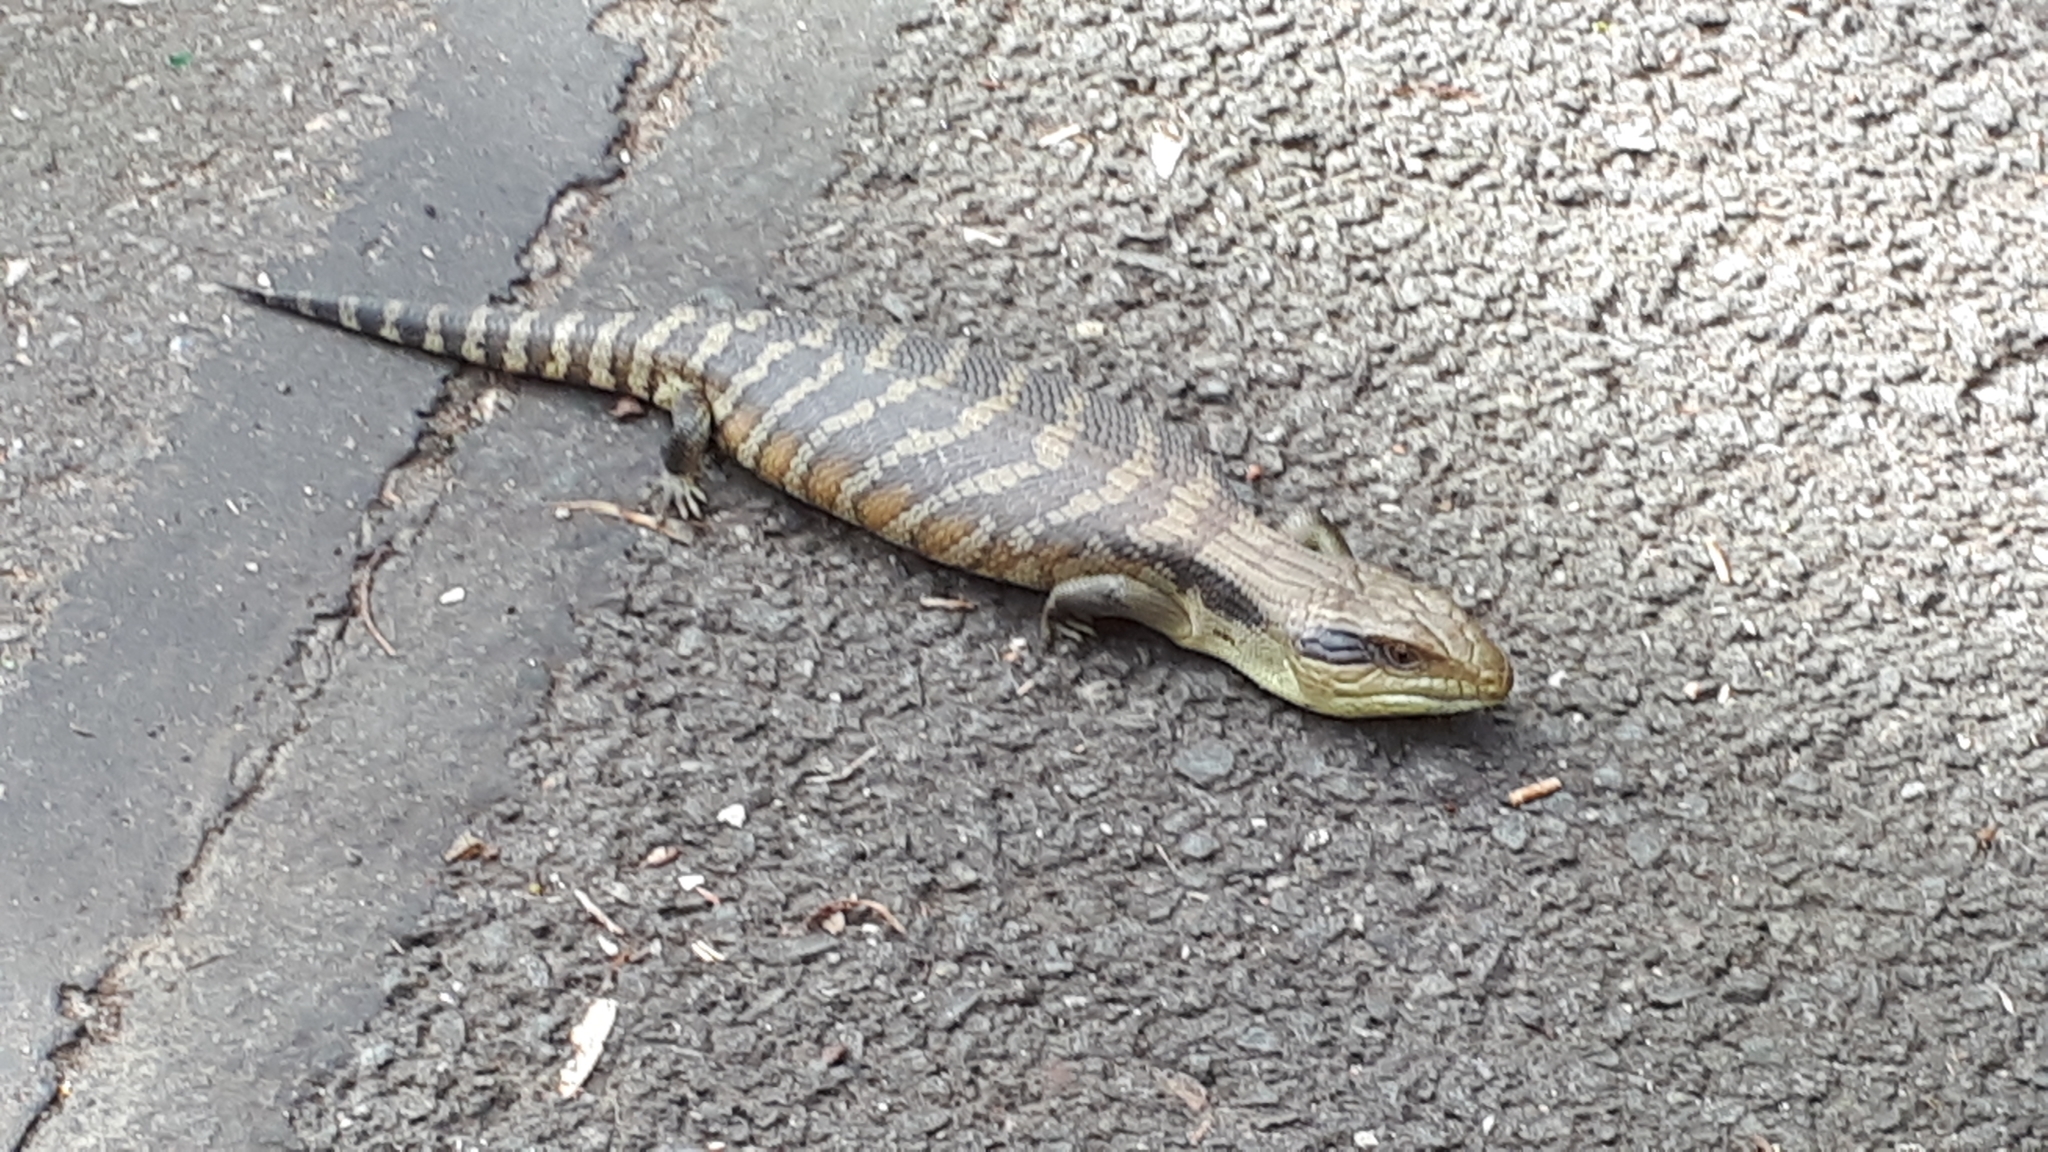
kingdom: Animalia
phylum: Chordata
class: Squamata
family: Scincidae
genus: Tiliqua
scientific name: Tiliqua scincoides
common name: Common bluetongue
